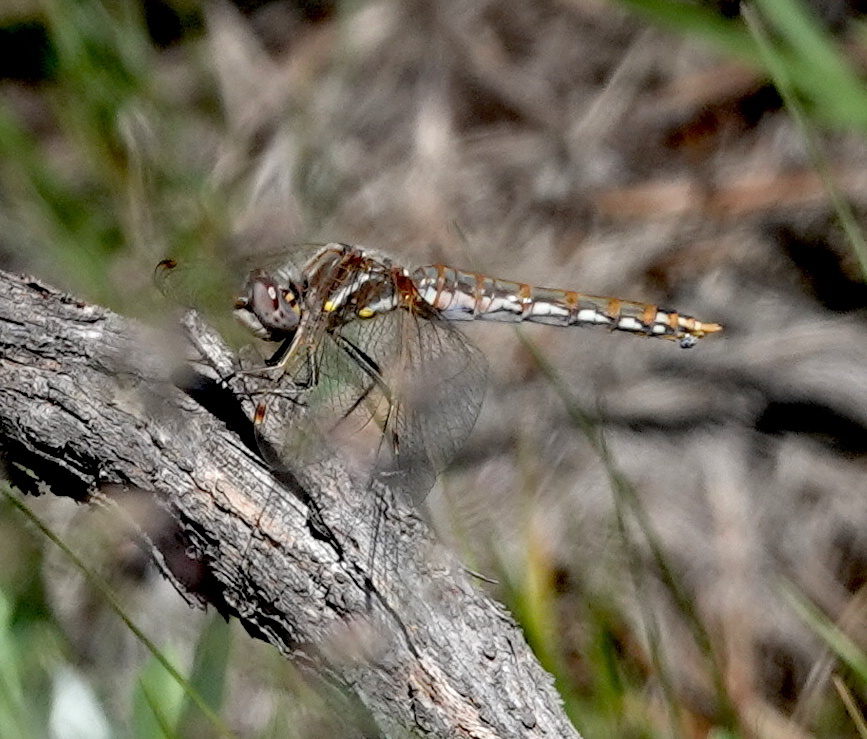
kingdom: Animalia
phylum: Arthropoda
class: Insecta
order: Odonata
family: Libellulidae
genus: Sympetrum
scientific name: Sympetrum corruptum
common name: Variegated meadowhawk
